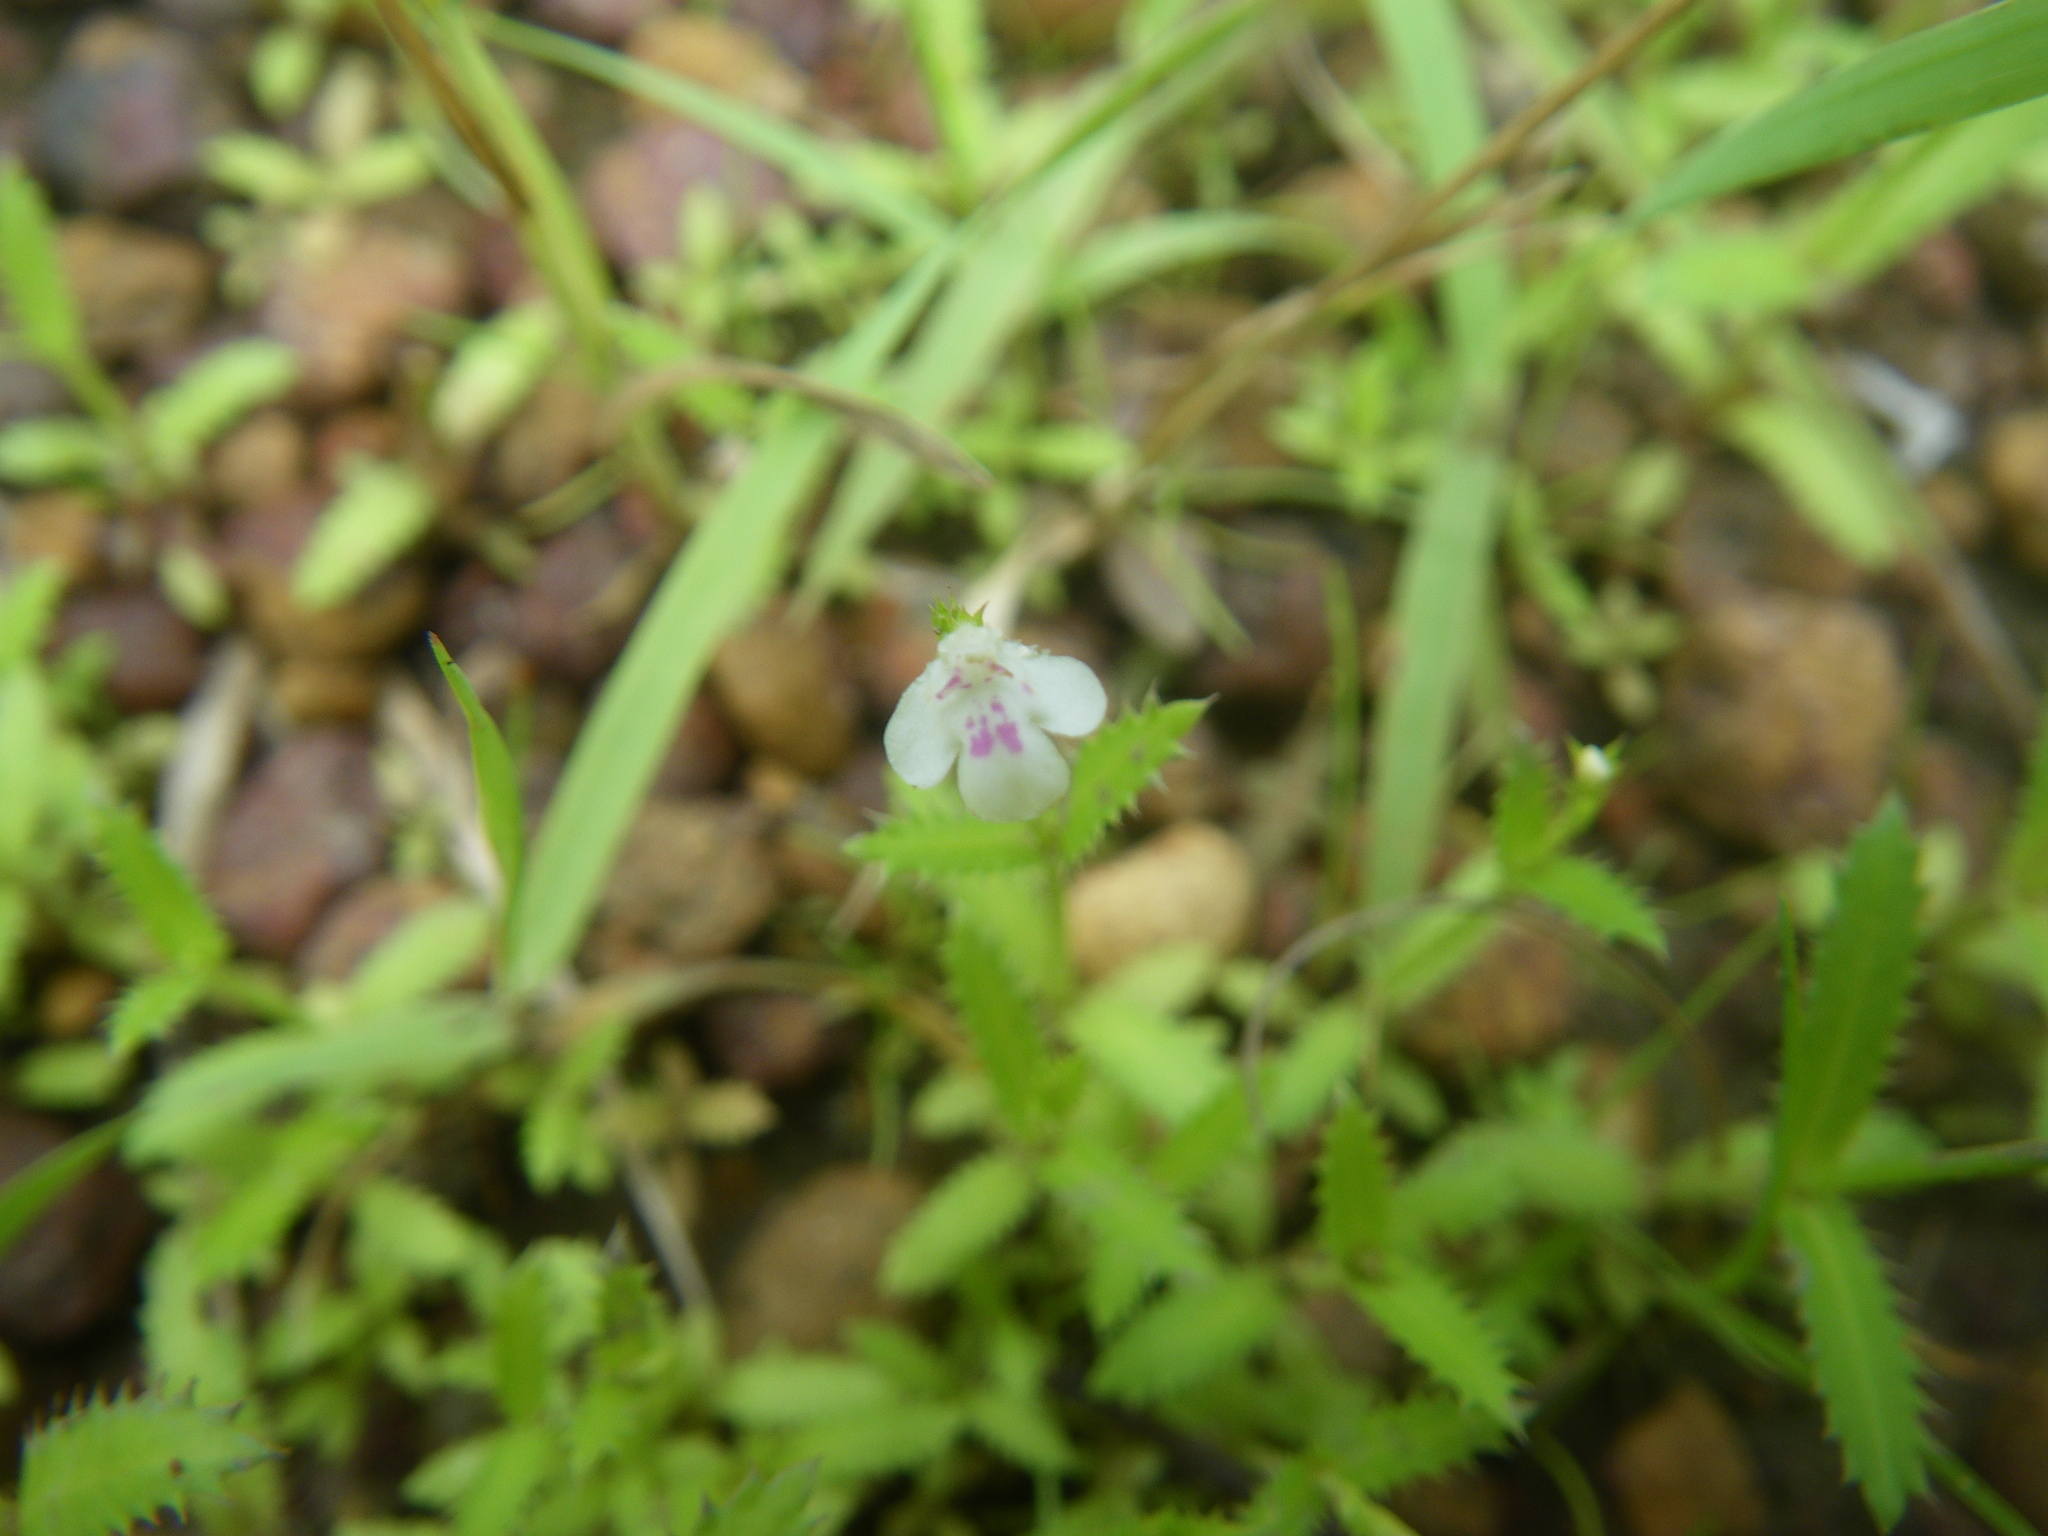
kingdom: Plantae
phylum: Tracheophyta
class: Magnoliopsida
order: Lamiales
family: Linderniaceae
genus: Bonnaya
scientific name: Bonnaya ciliata
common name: Hairy slitwort
